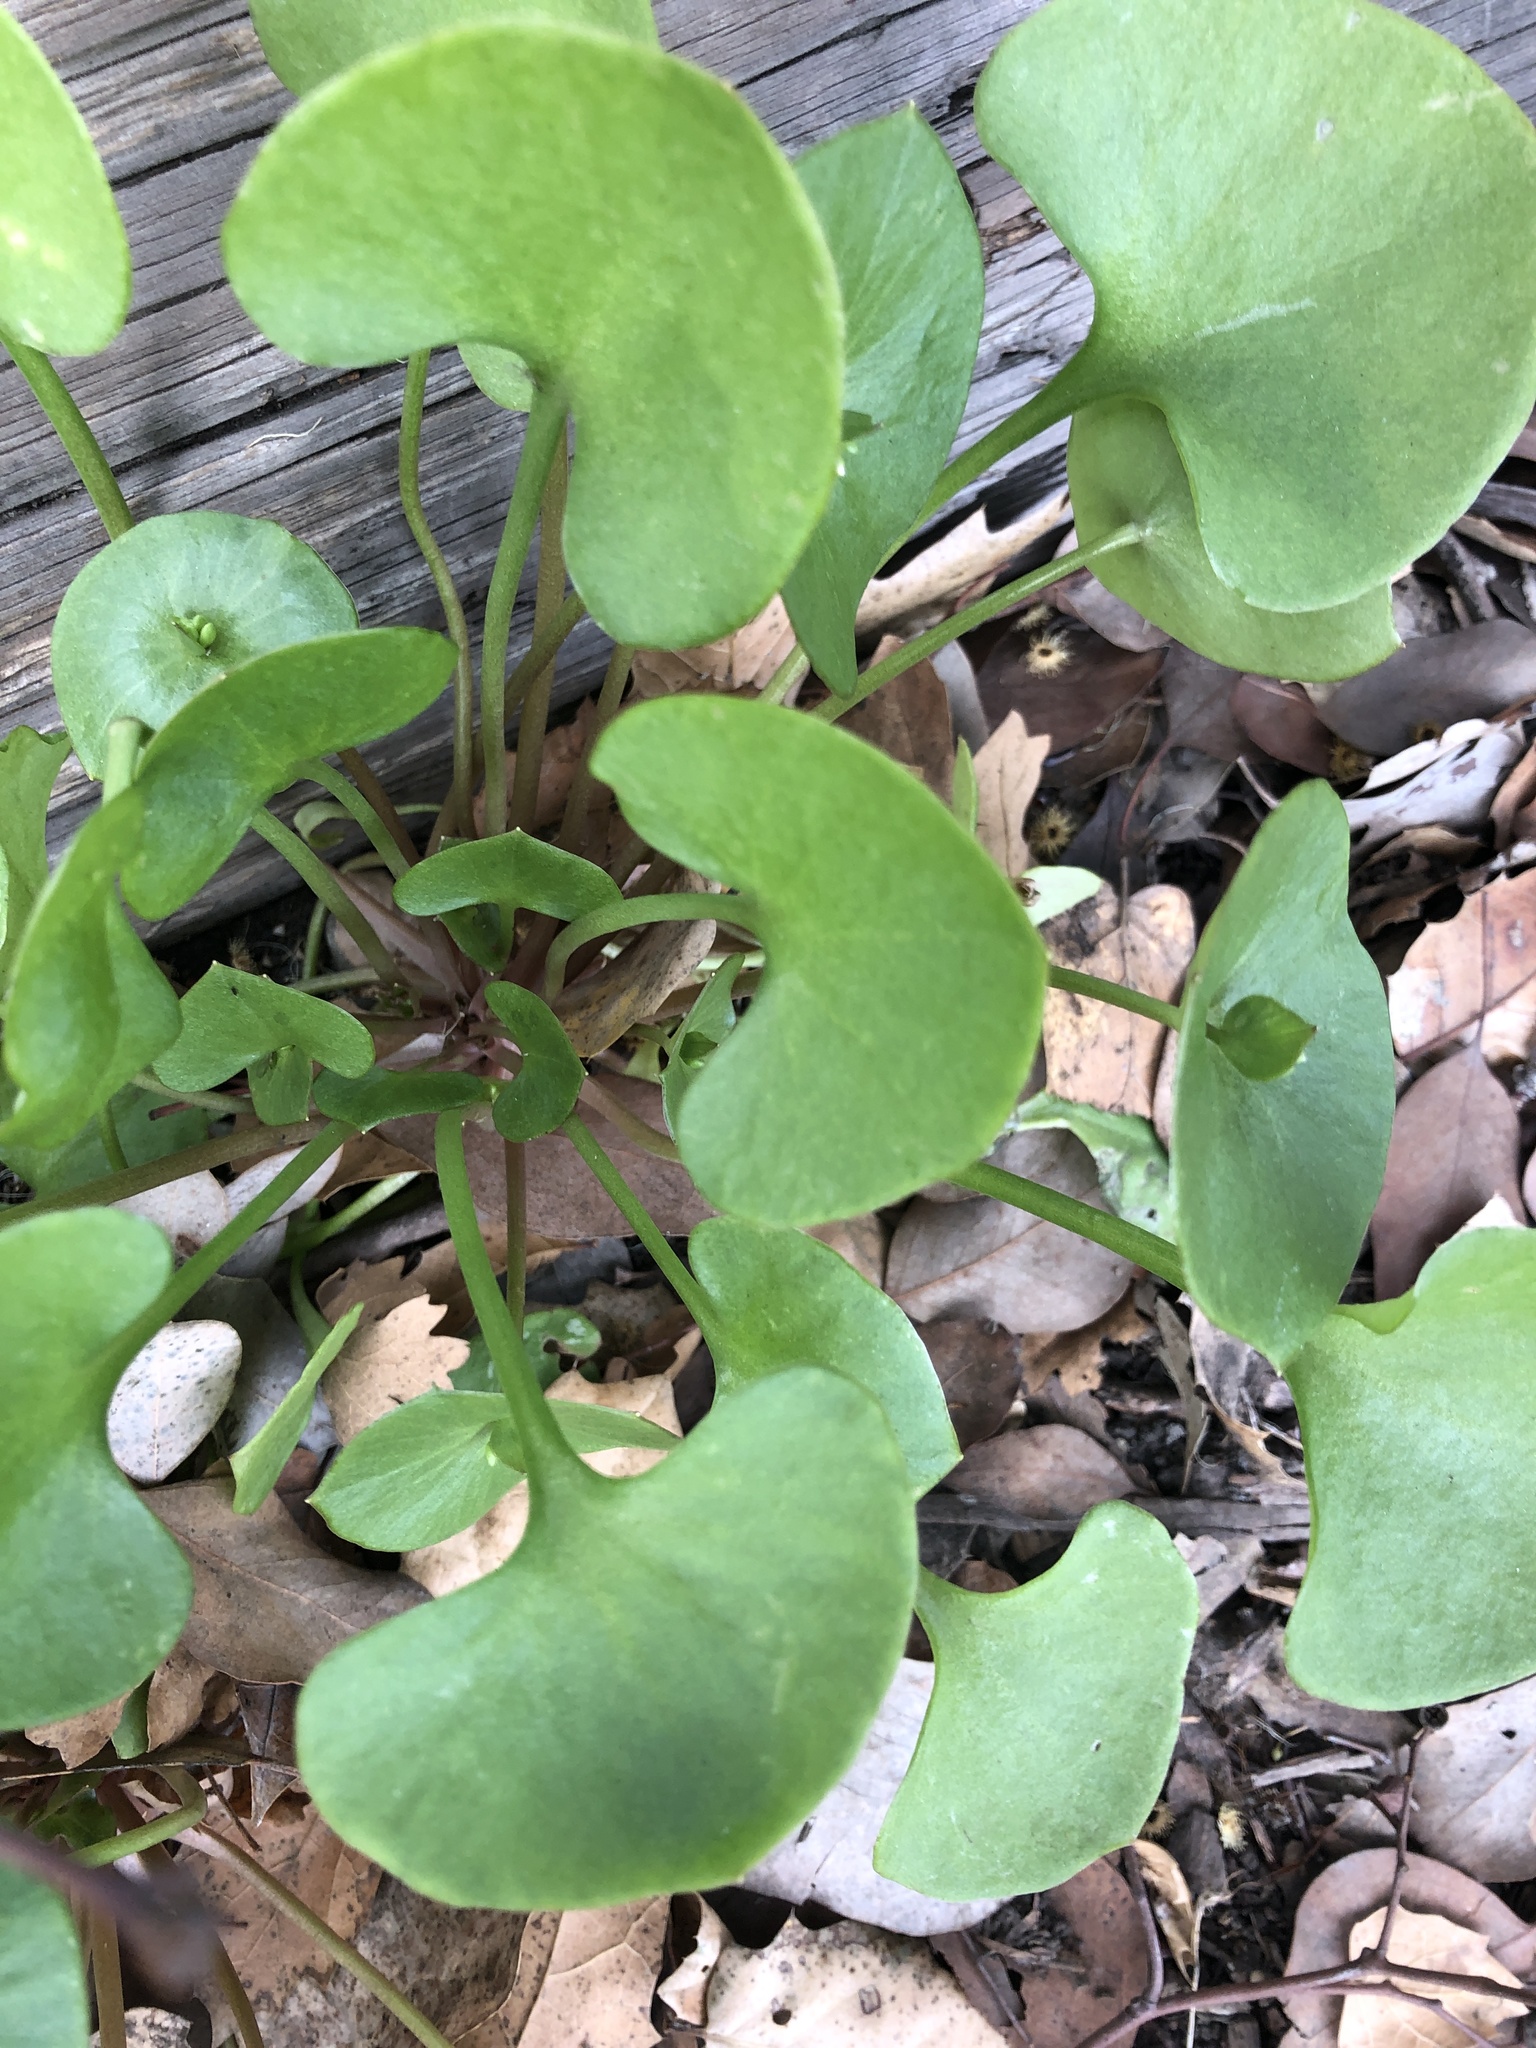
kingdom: Plantae
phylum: Tracheophyta
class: Magnoliopsida
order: Caryophyllales
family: Montiaceae
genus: Claytonia
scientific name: Claytonia perfoliata
